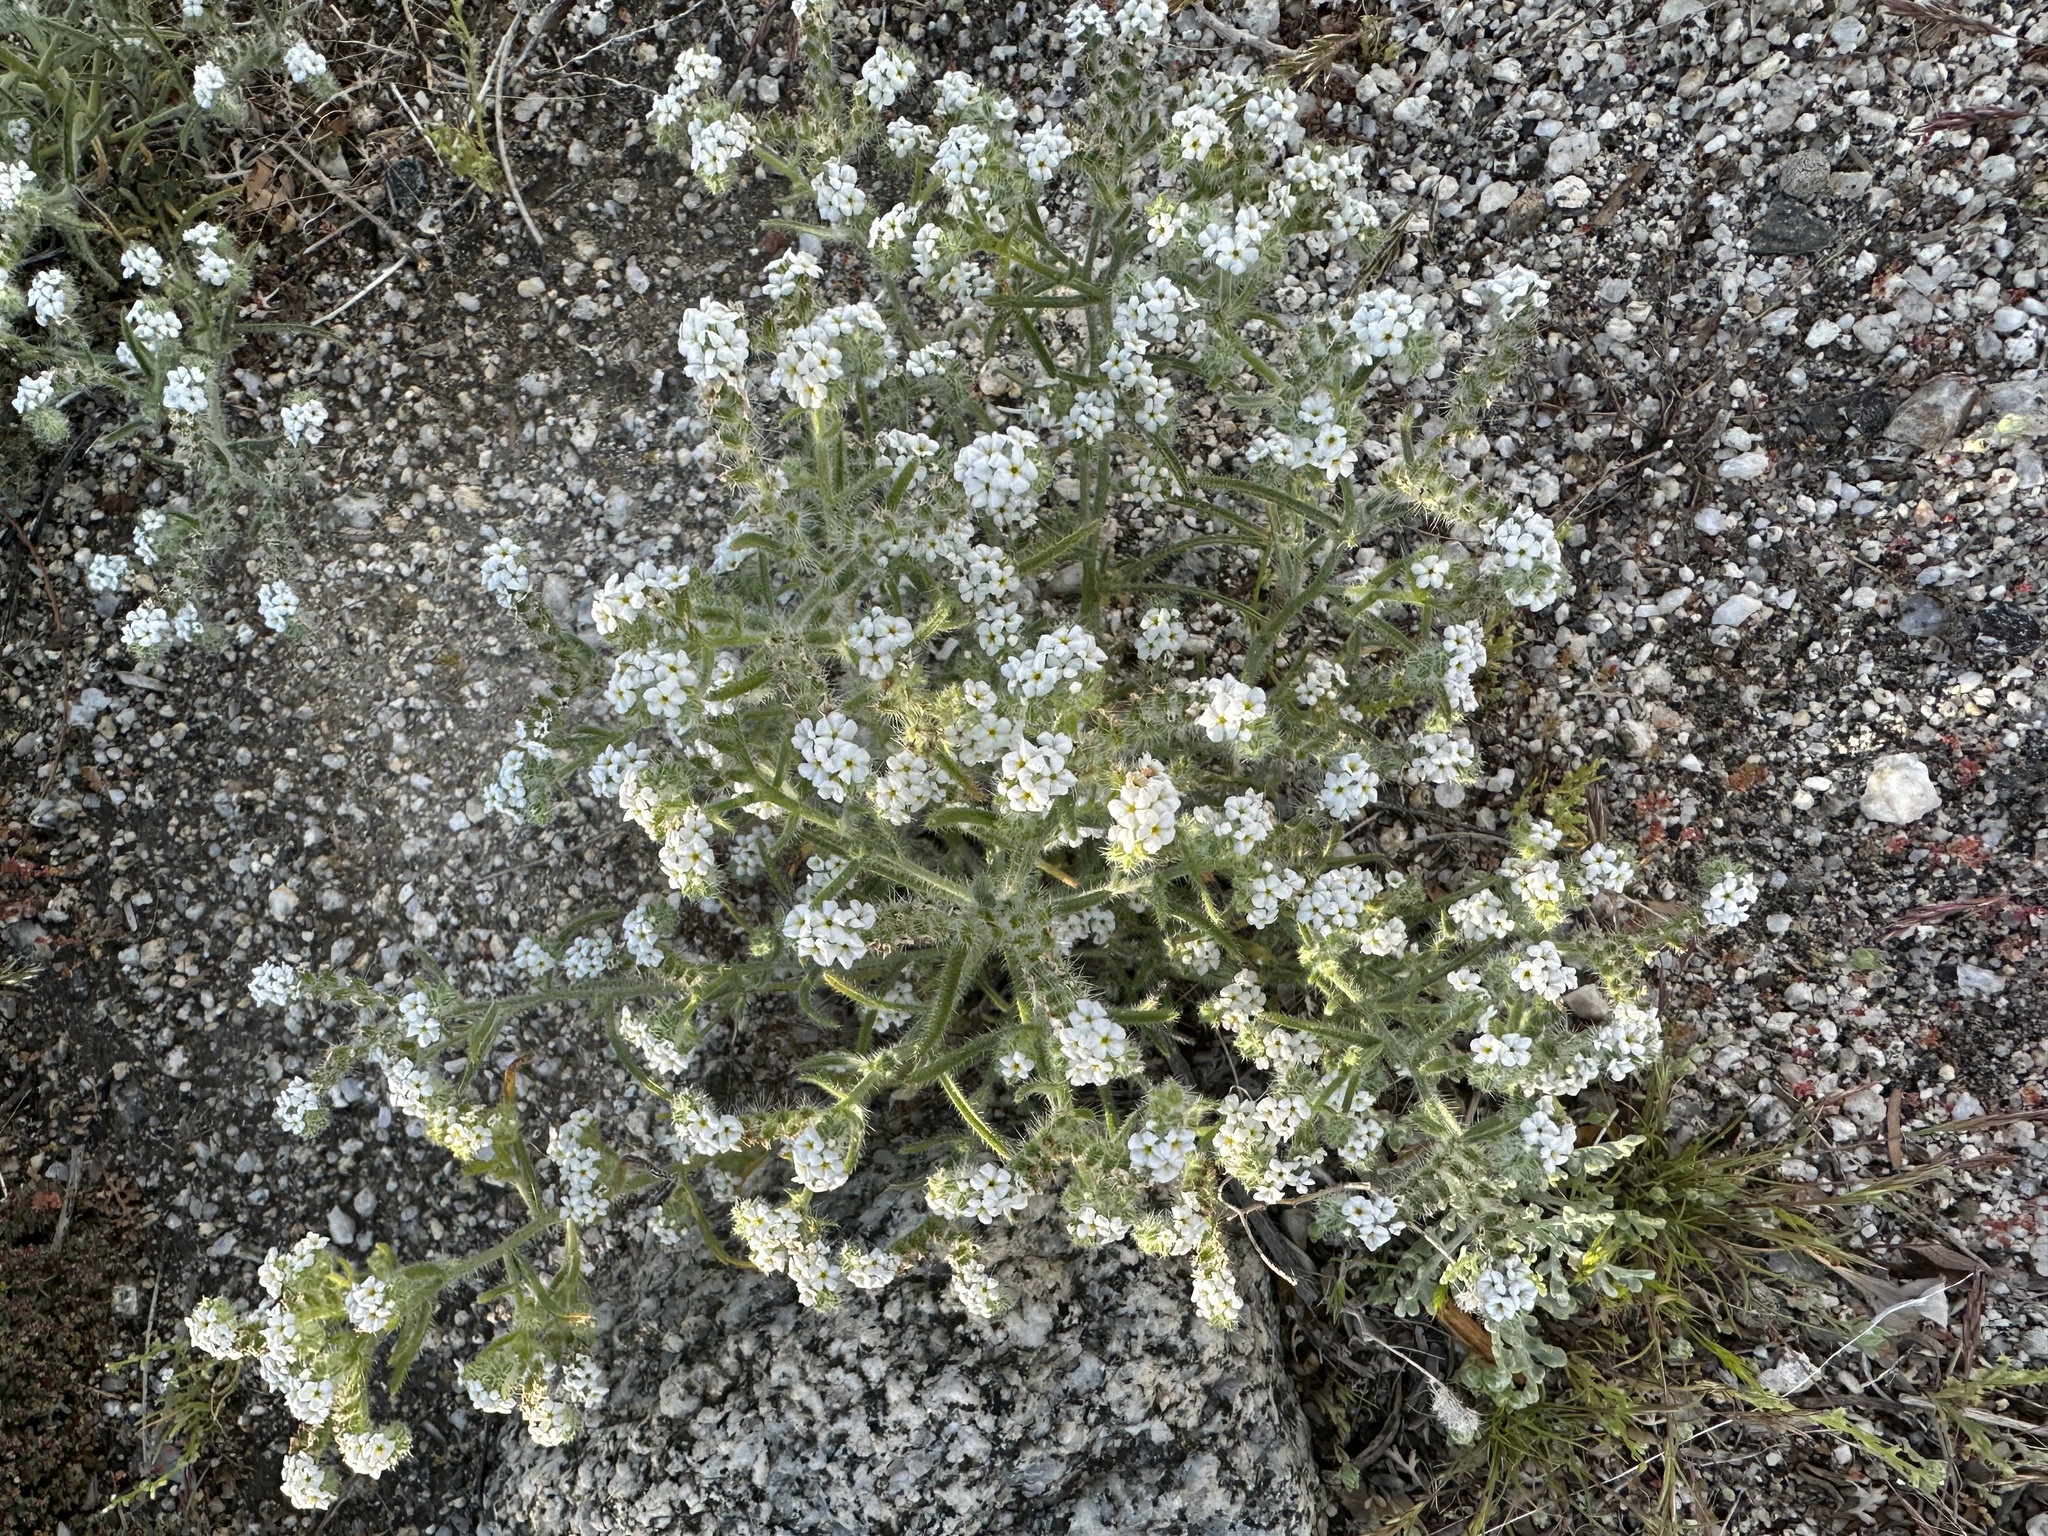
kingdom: Plantae
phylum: Tracheophyta
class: Magnoliopsida
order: Boraginales
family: Boraginaceae
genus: Johnstonella
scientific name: Johnstonella angustifolia
